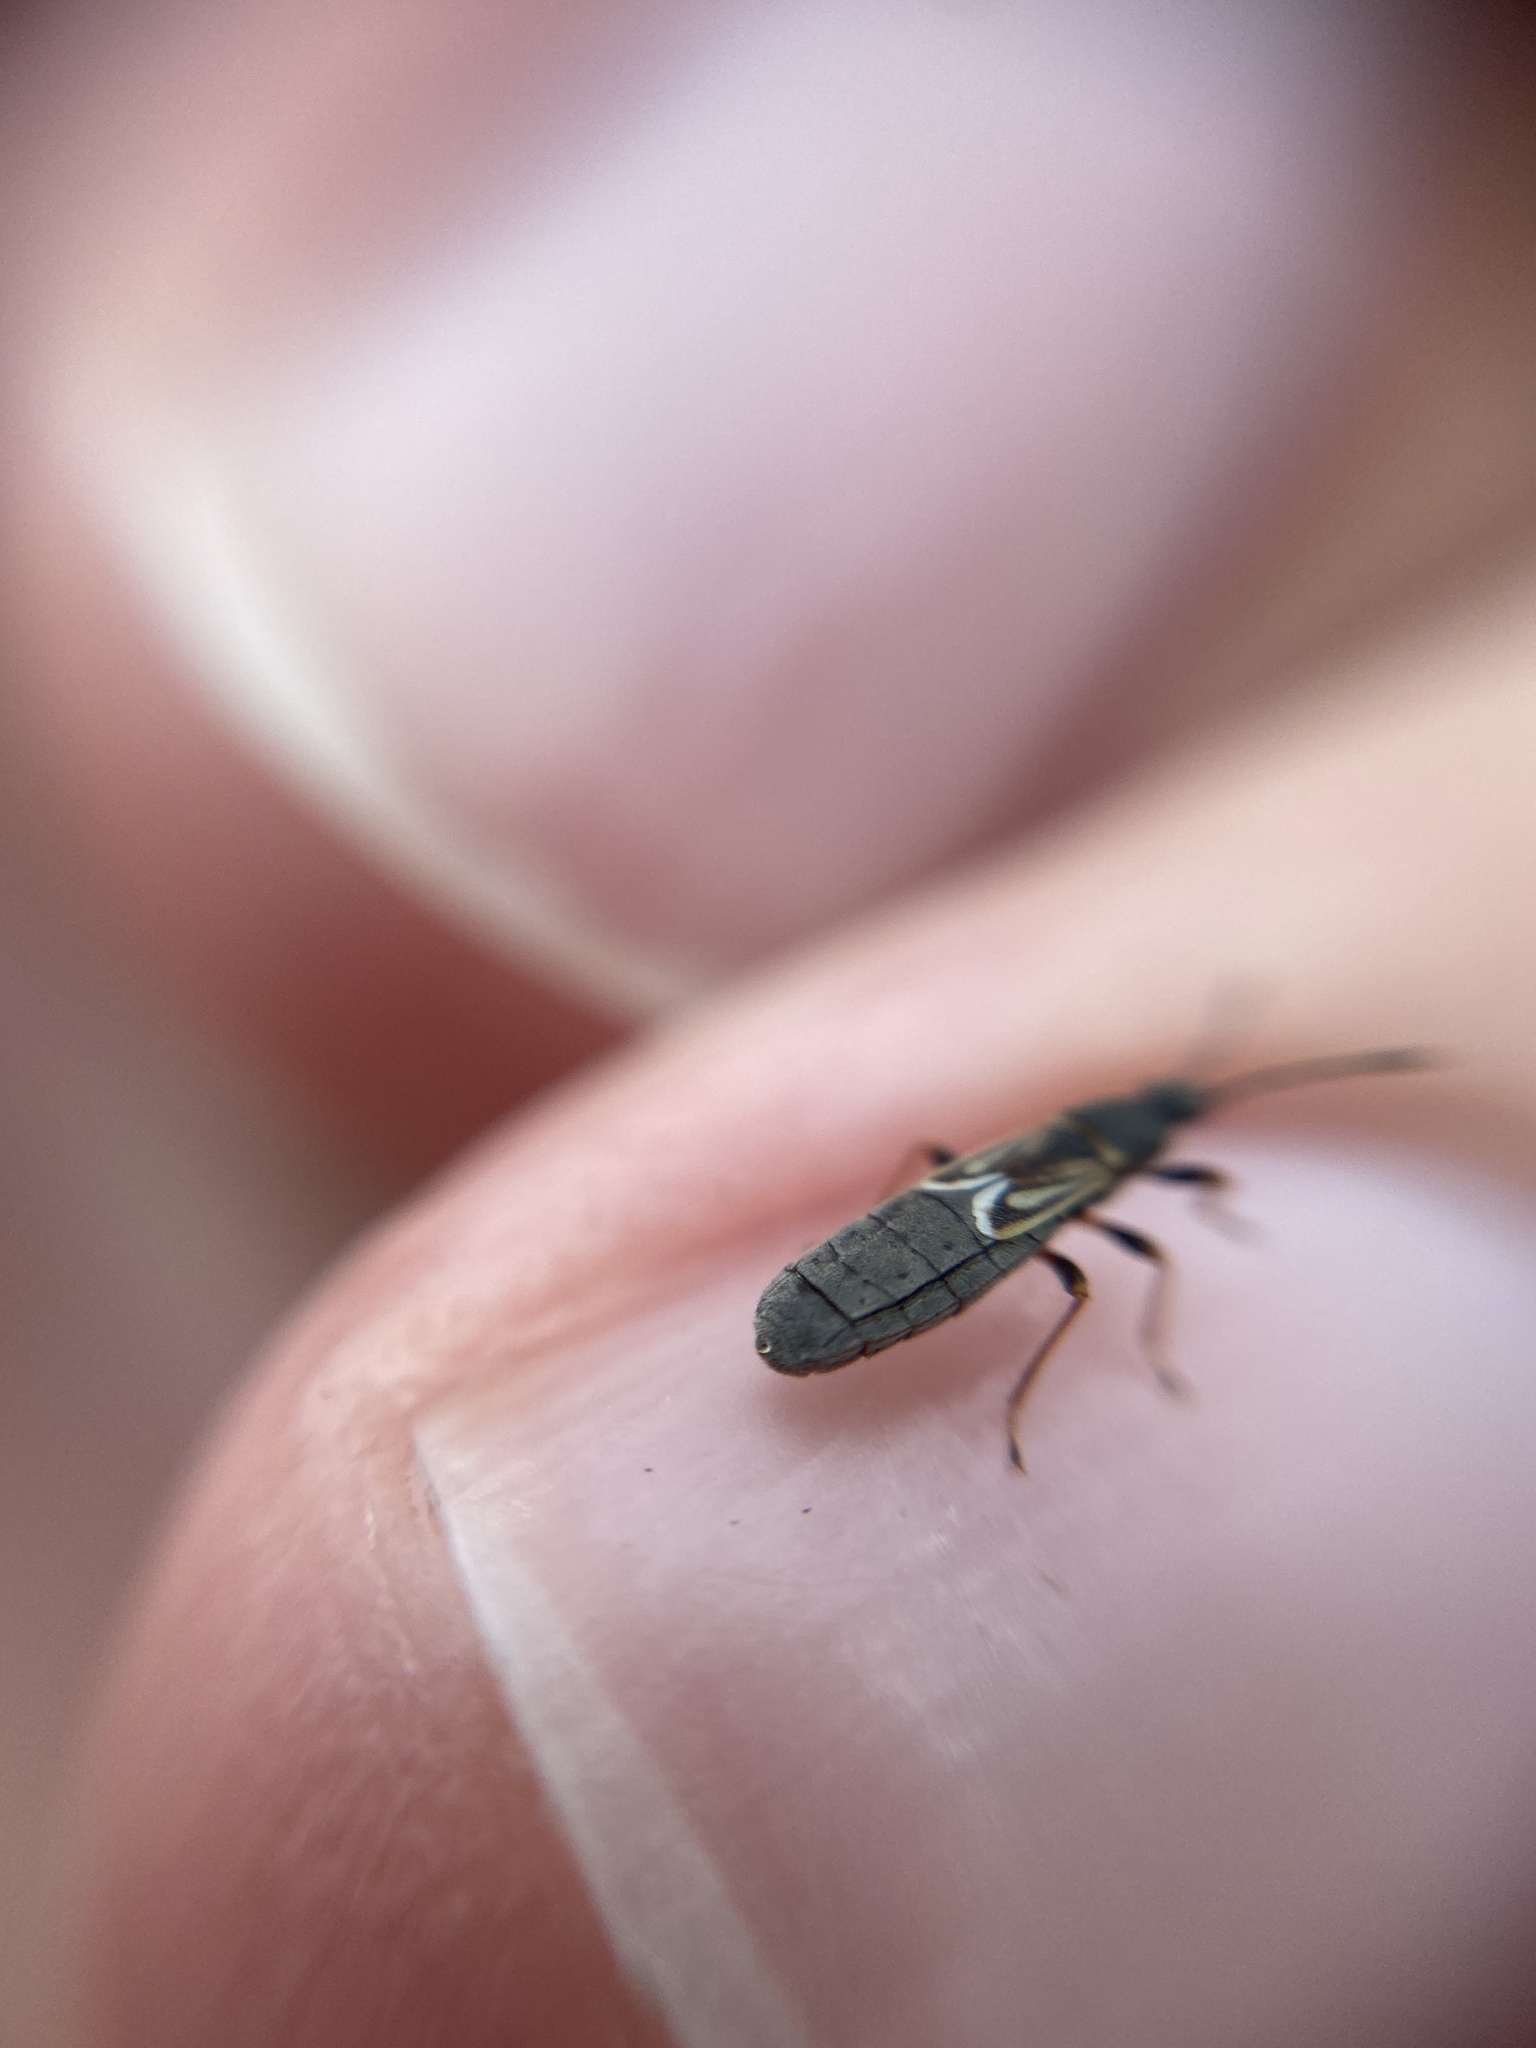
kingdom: Animalia
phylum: Arthropoda
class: Insecta
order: Hemiptera
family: Blissidae
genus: Ischnodemus
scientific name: Ischnodemus sabuleti
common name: European cinchbug
